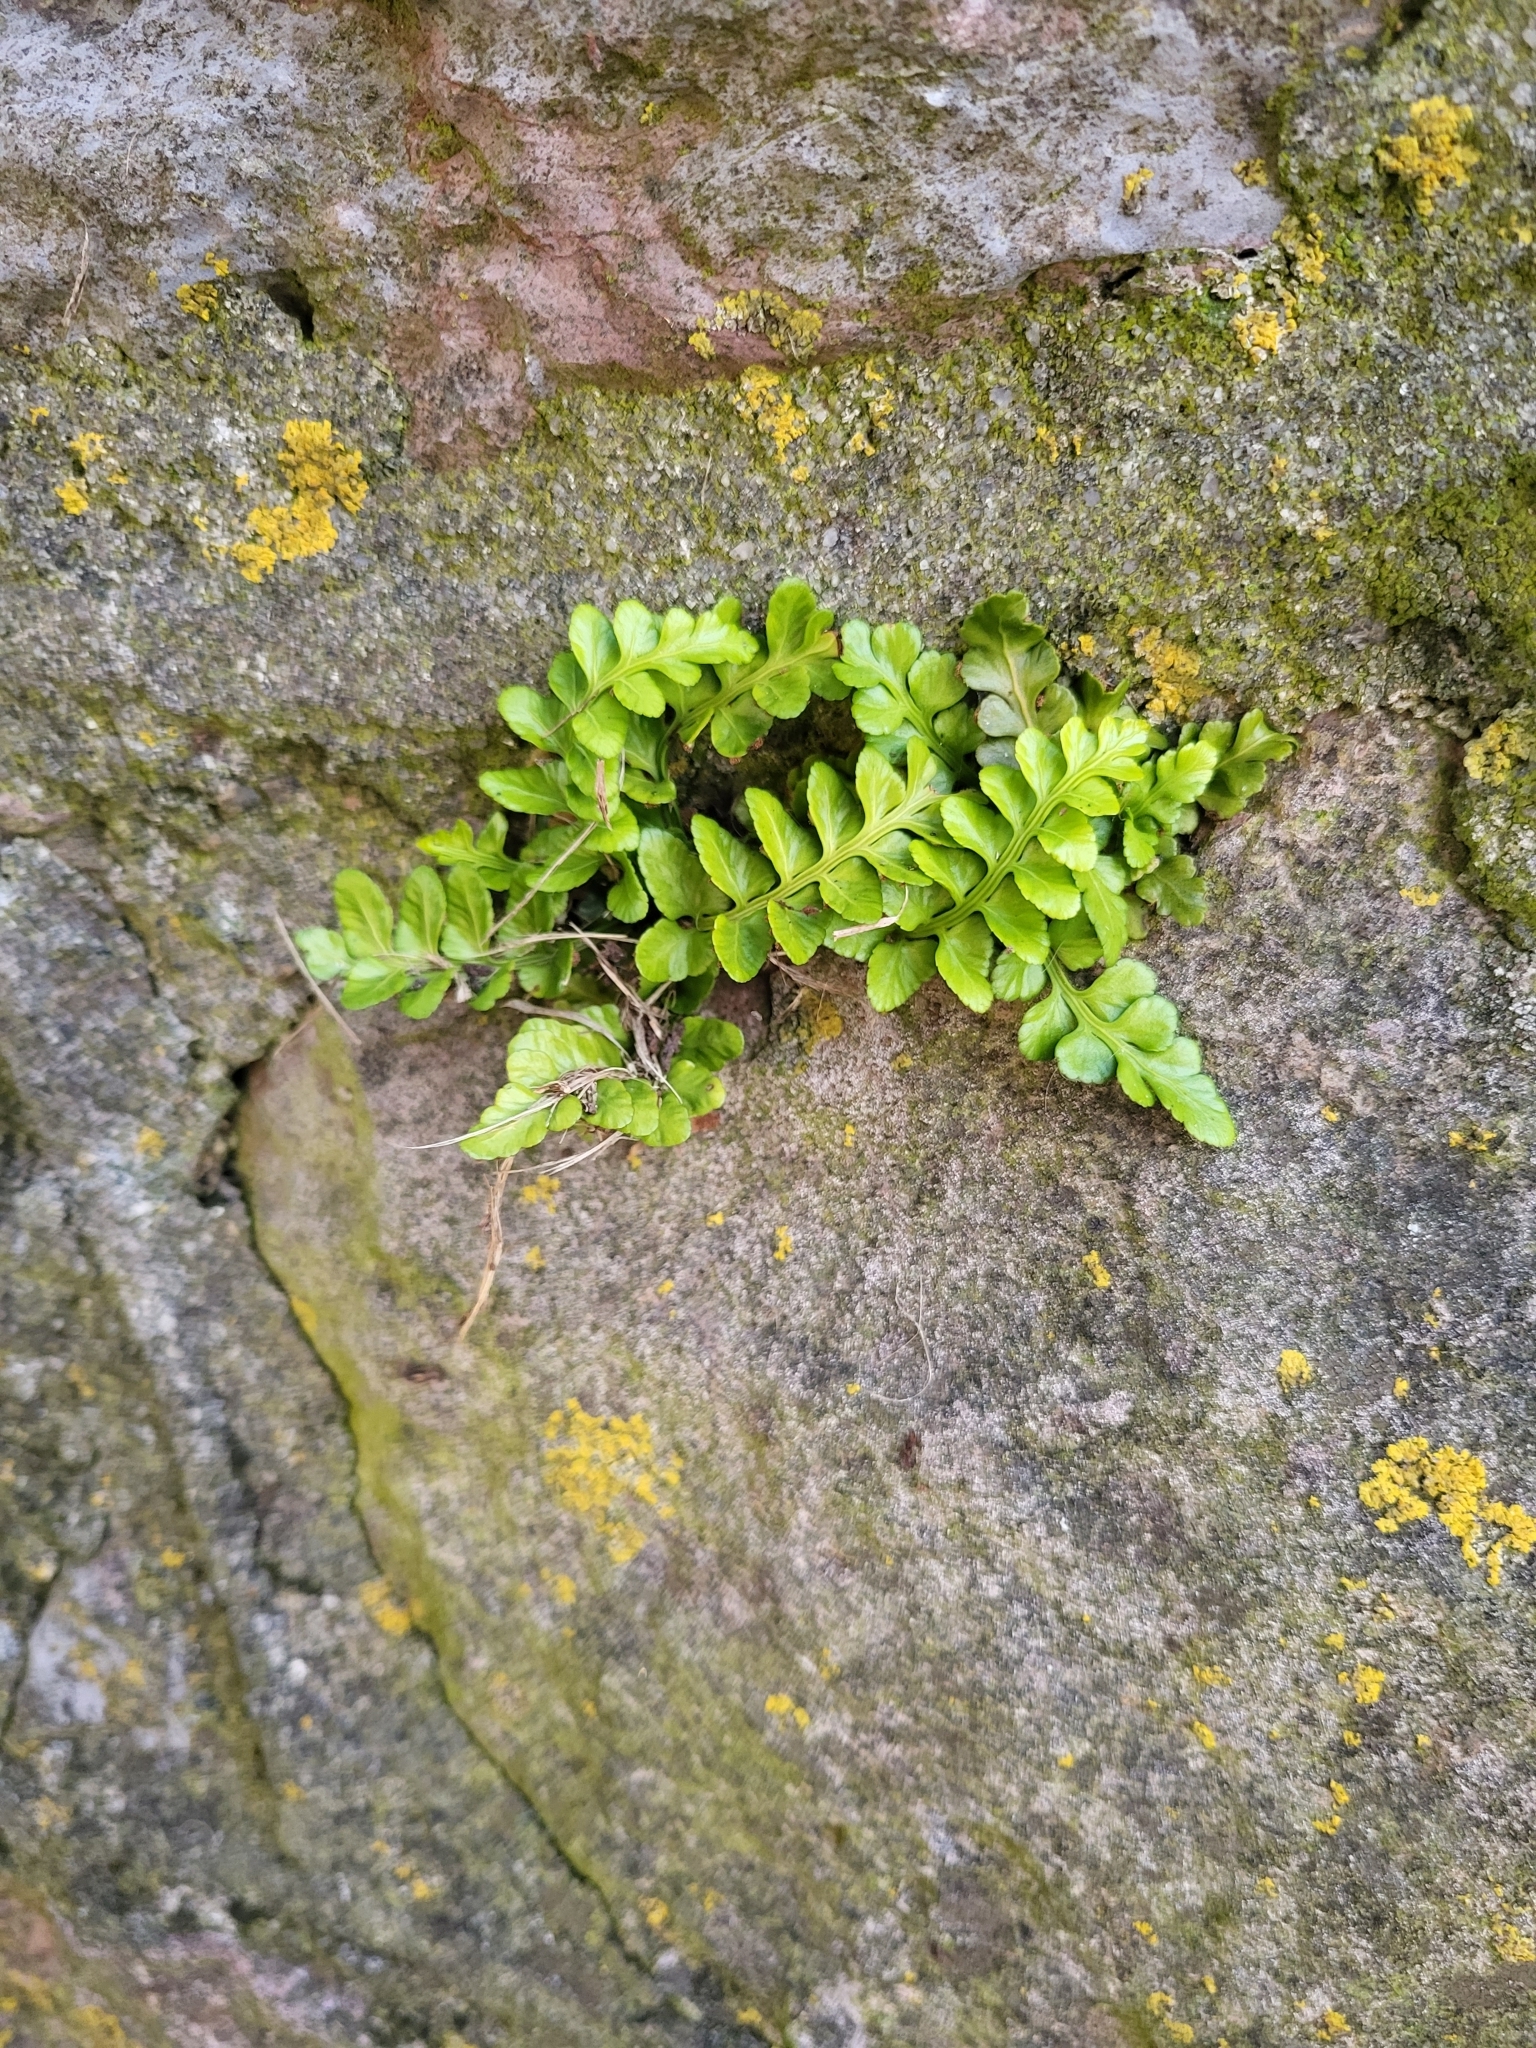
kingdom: Plantae
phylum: Tracheophyta
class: Polypodiopsida
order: Polypodiales
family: Aspleniaceae
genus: Asplenium
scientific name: Asplenium marinum
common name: Sea spleenwort
